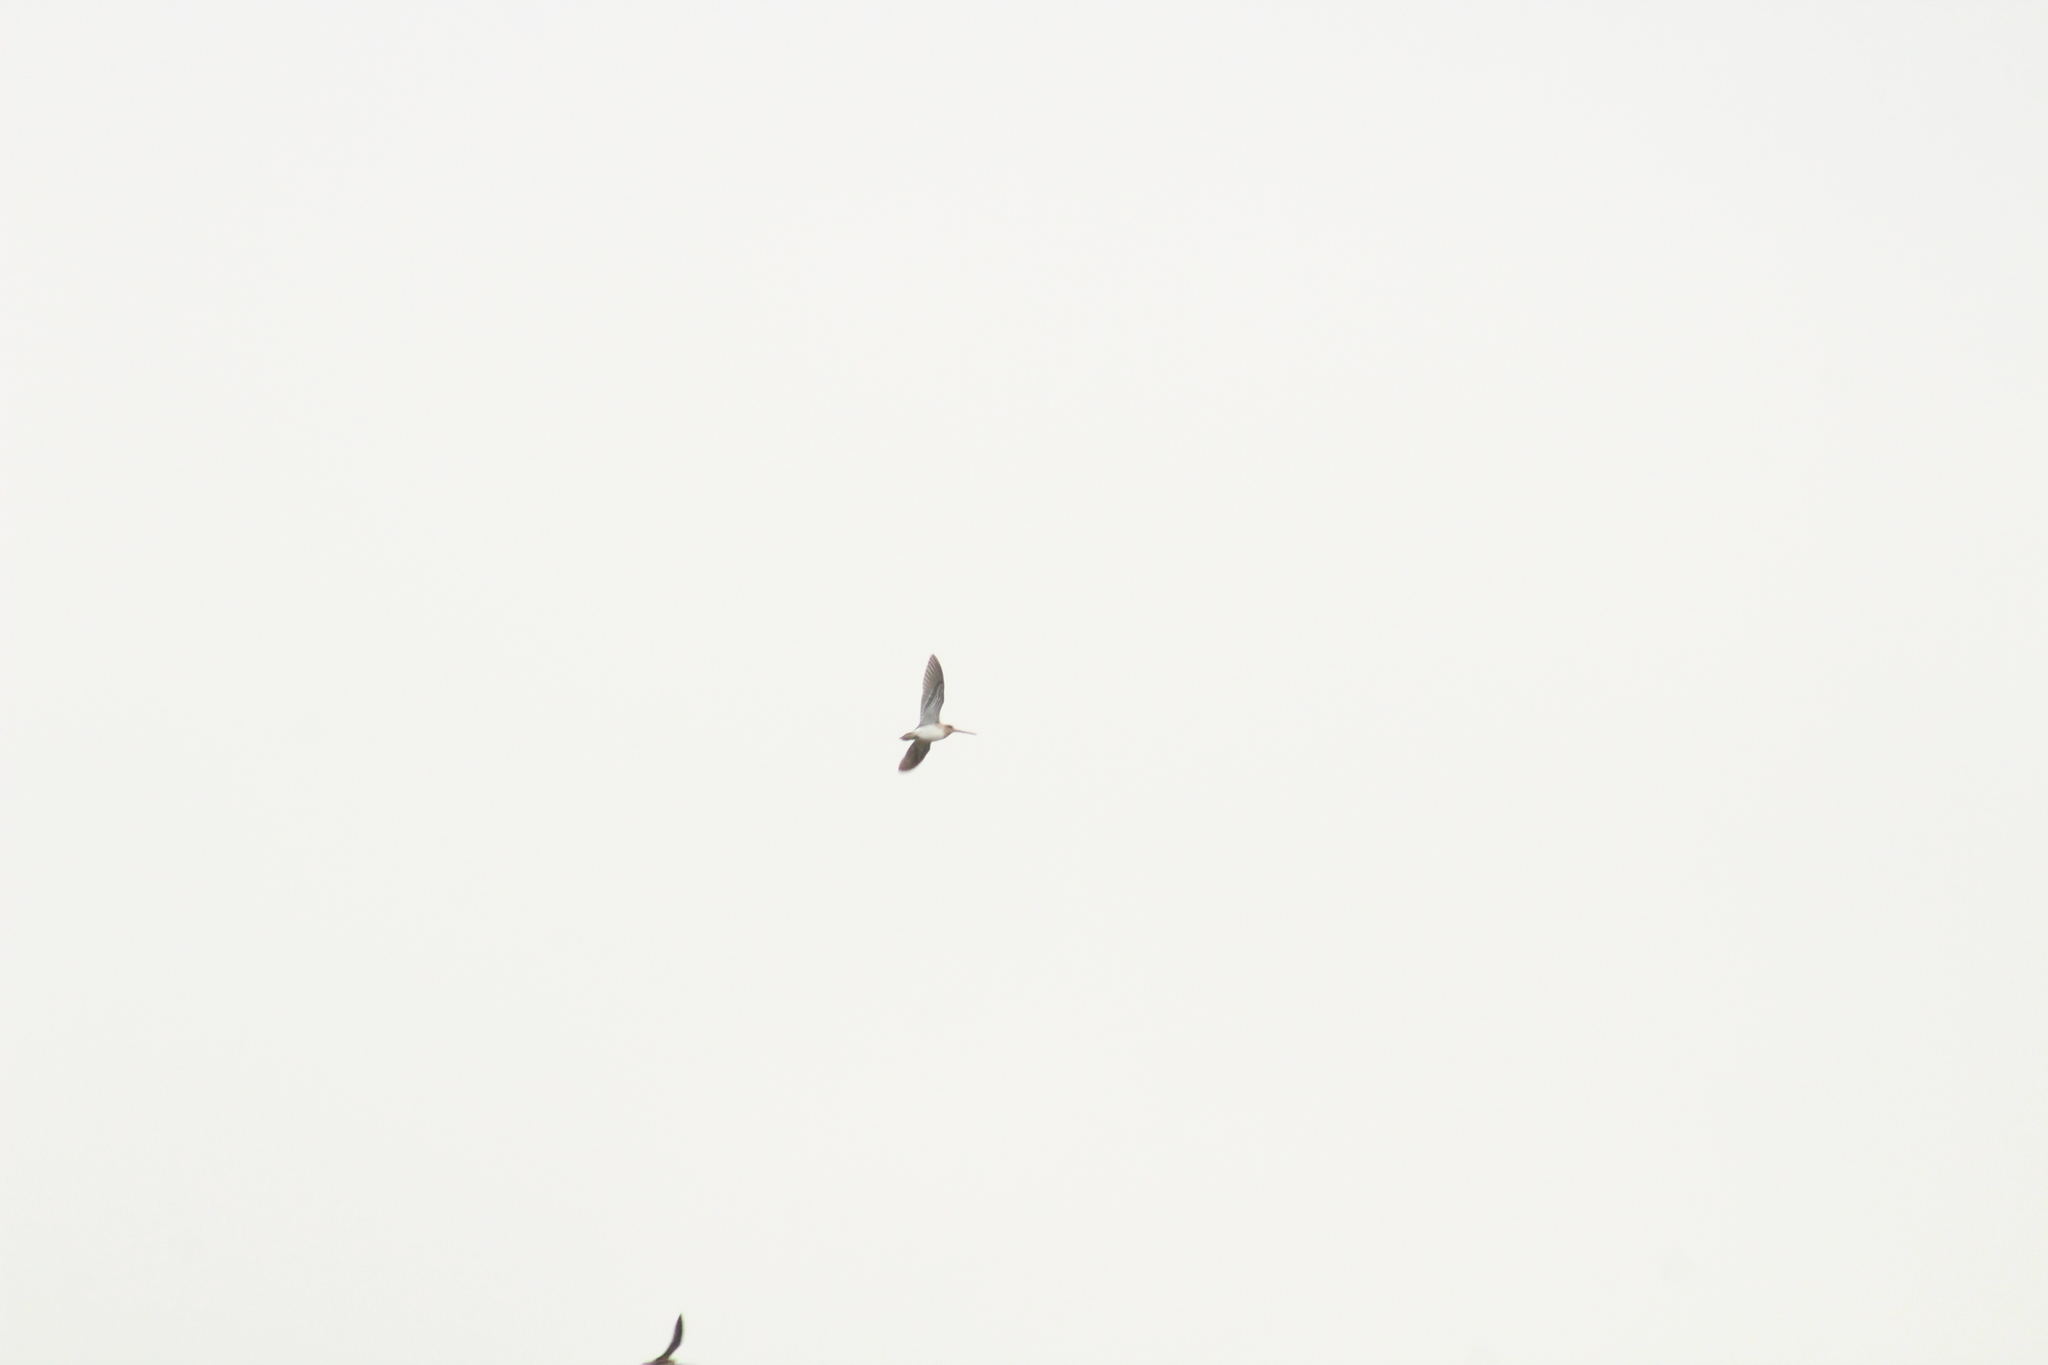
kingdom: Animalia
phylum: Chordata
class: Aves
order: Charadriiformes
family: Scolopacidae
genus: Gallinago
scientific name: Gallinago gallinago
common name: Common snipe
